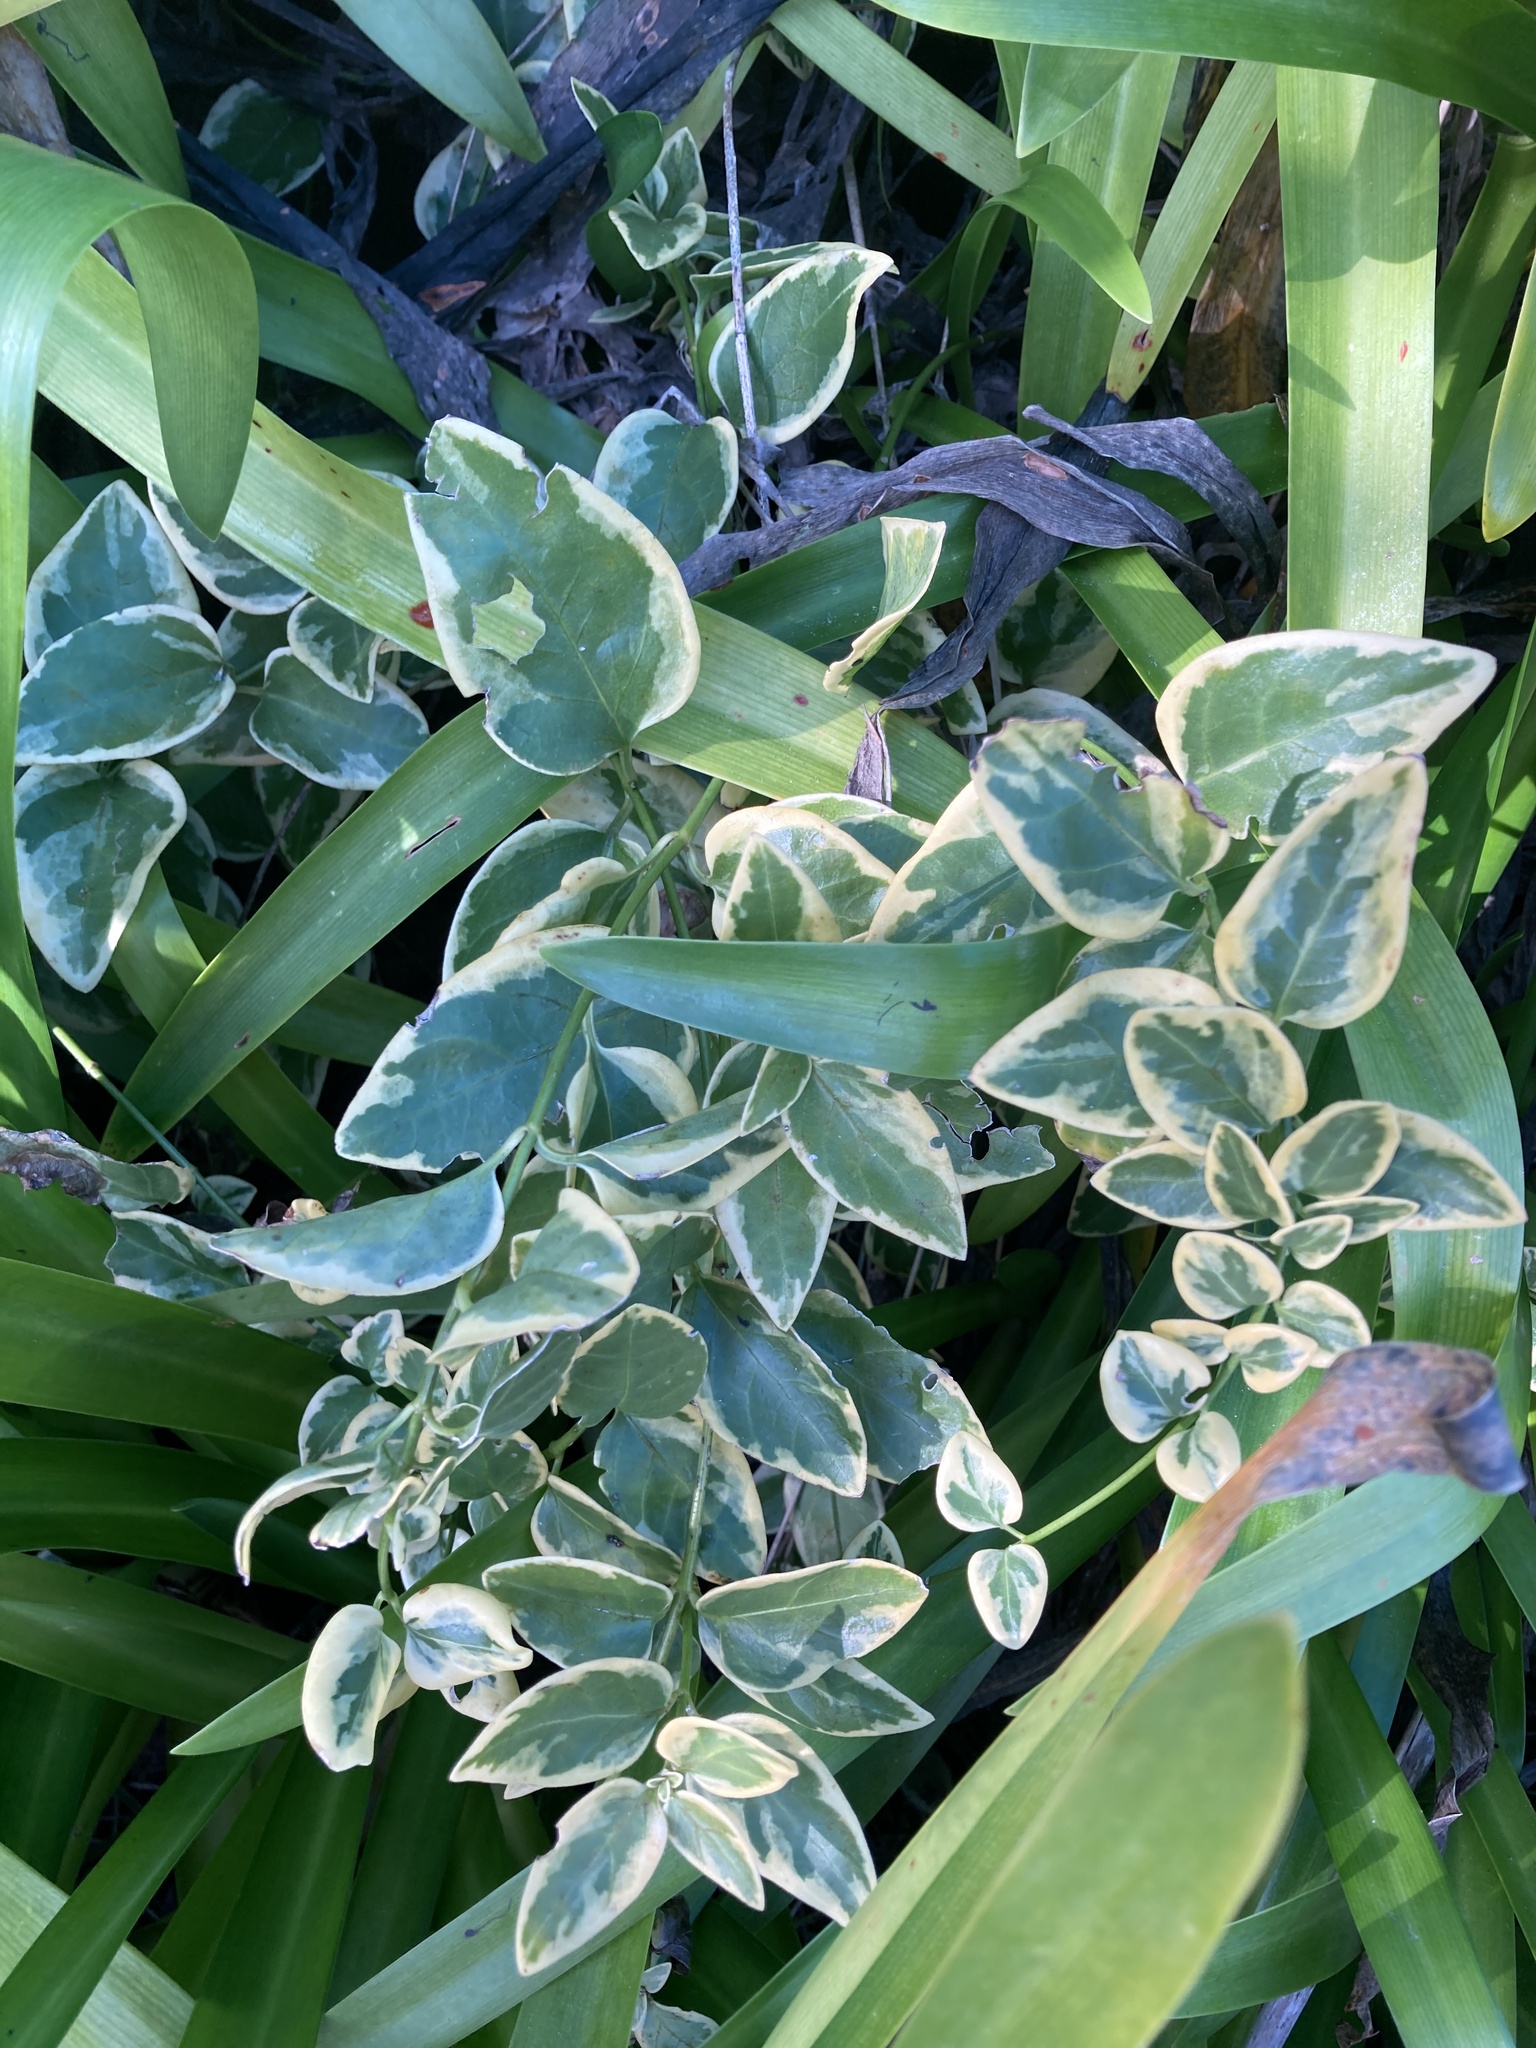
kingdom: Plantae
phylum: Tracheophyta
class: Magnoliopsida
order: Gentianales
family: Apocynaceae
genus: Vinca
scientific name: Vinca major
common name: Greater periwinkle
